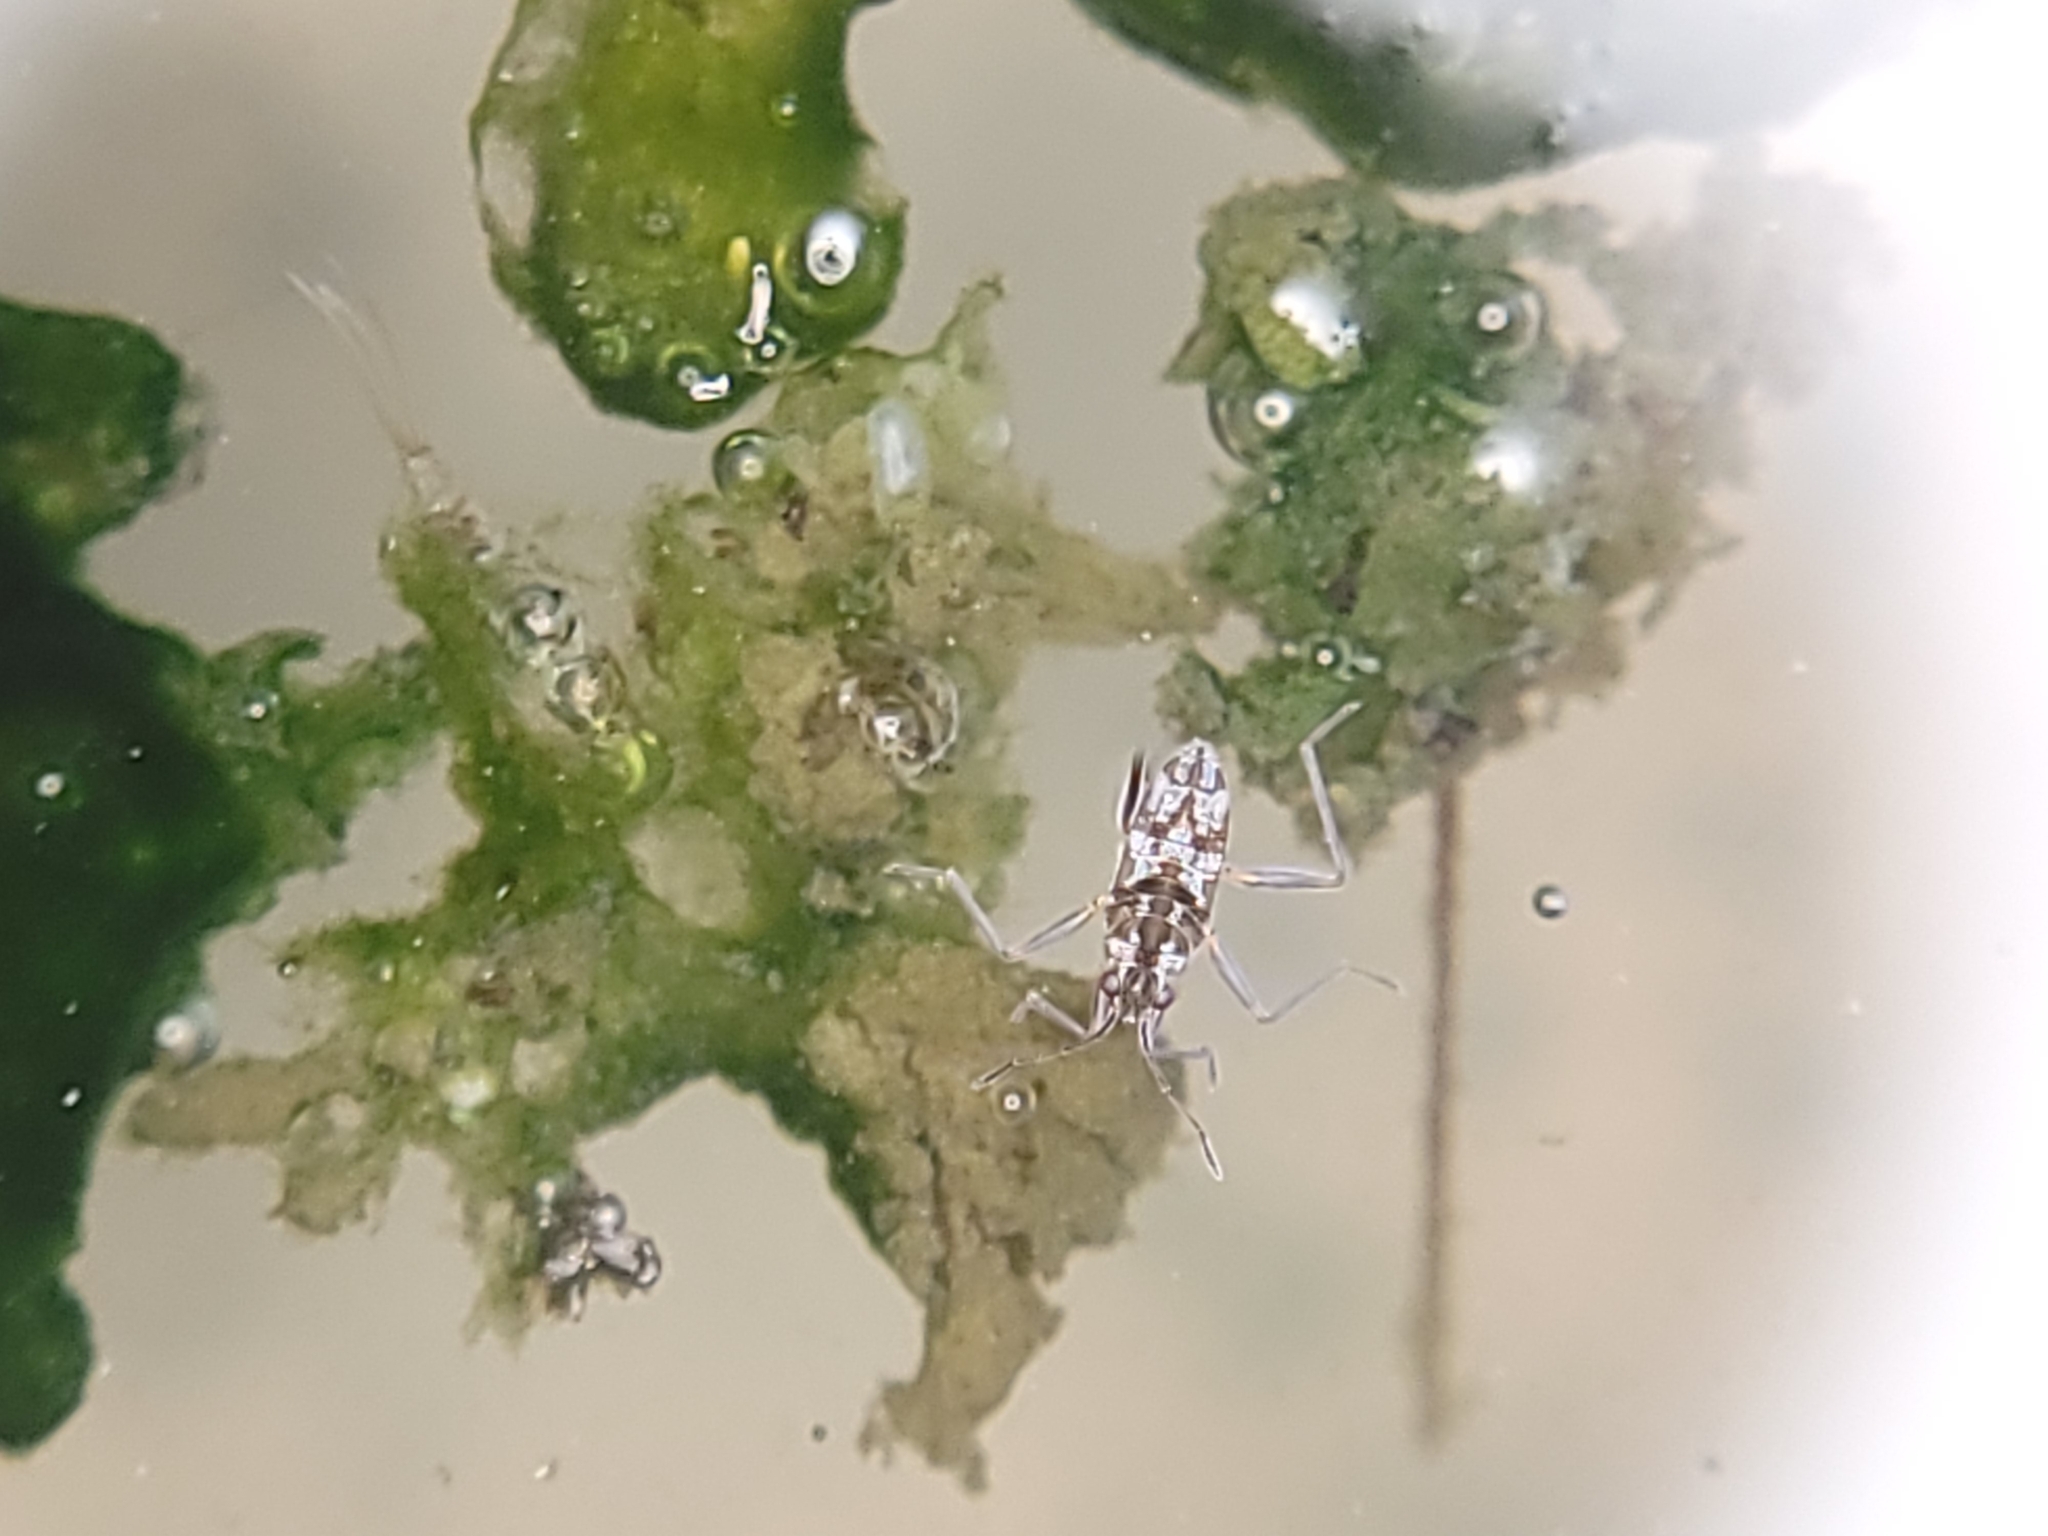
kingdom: Animalia
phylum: Arthropoda
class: Insecta
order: Hemiptera
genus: Kirkaldya
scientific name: Kirkaldya
